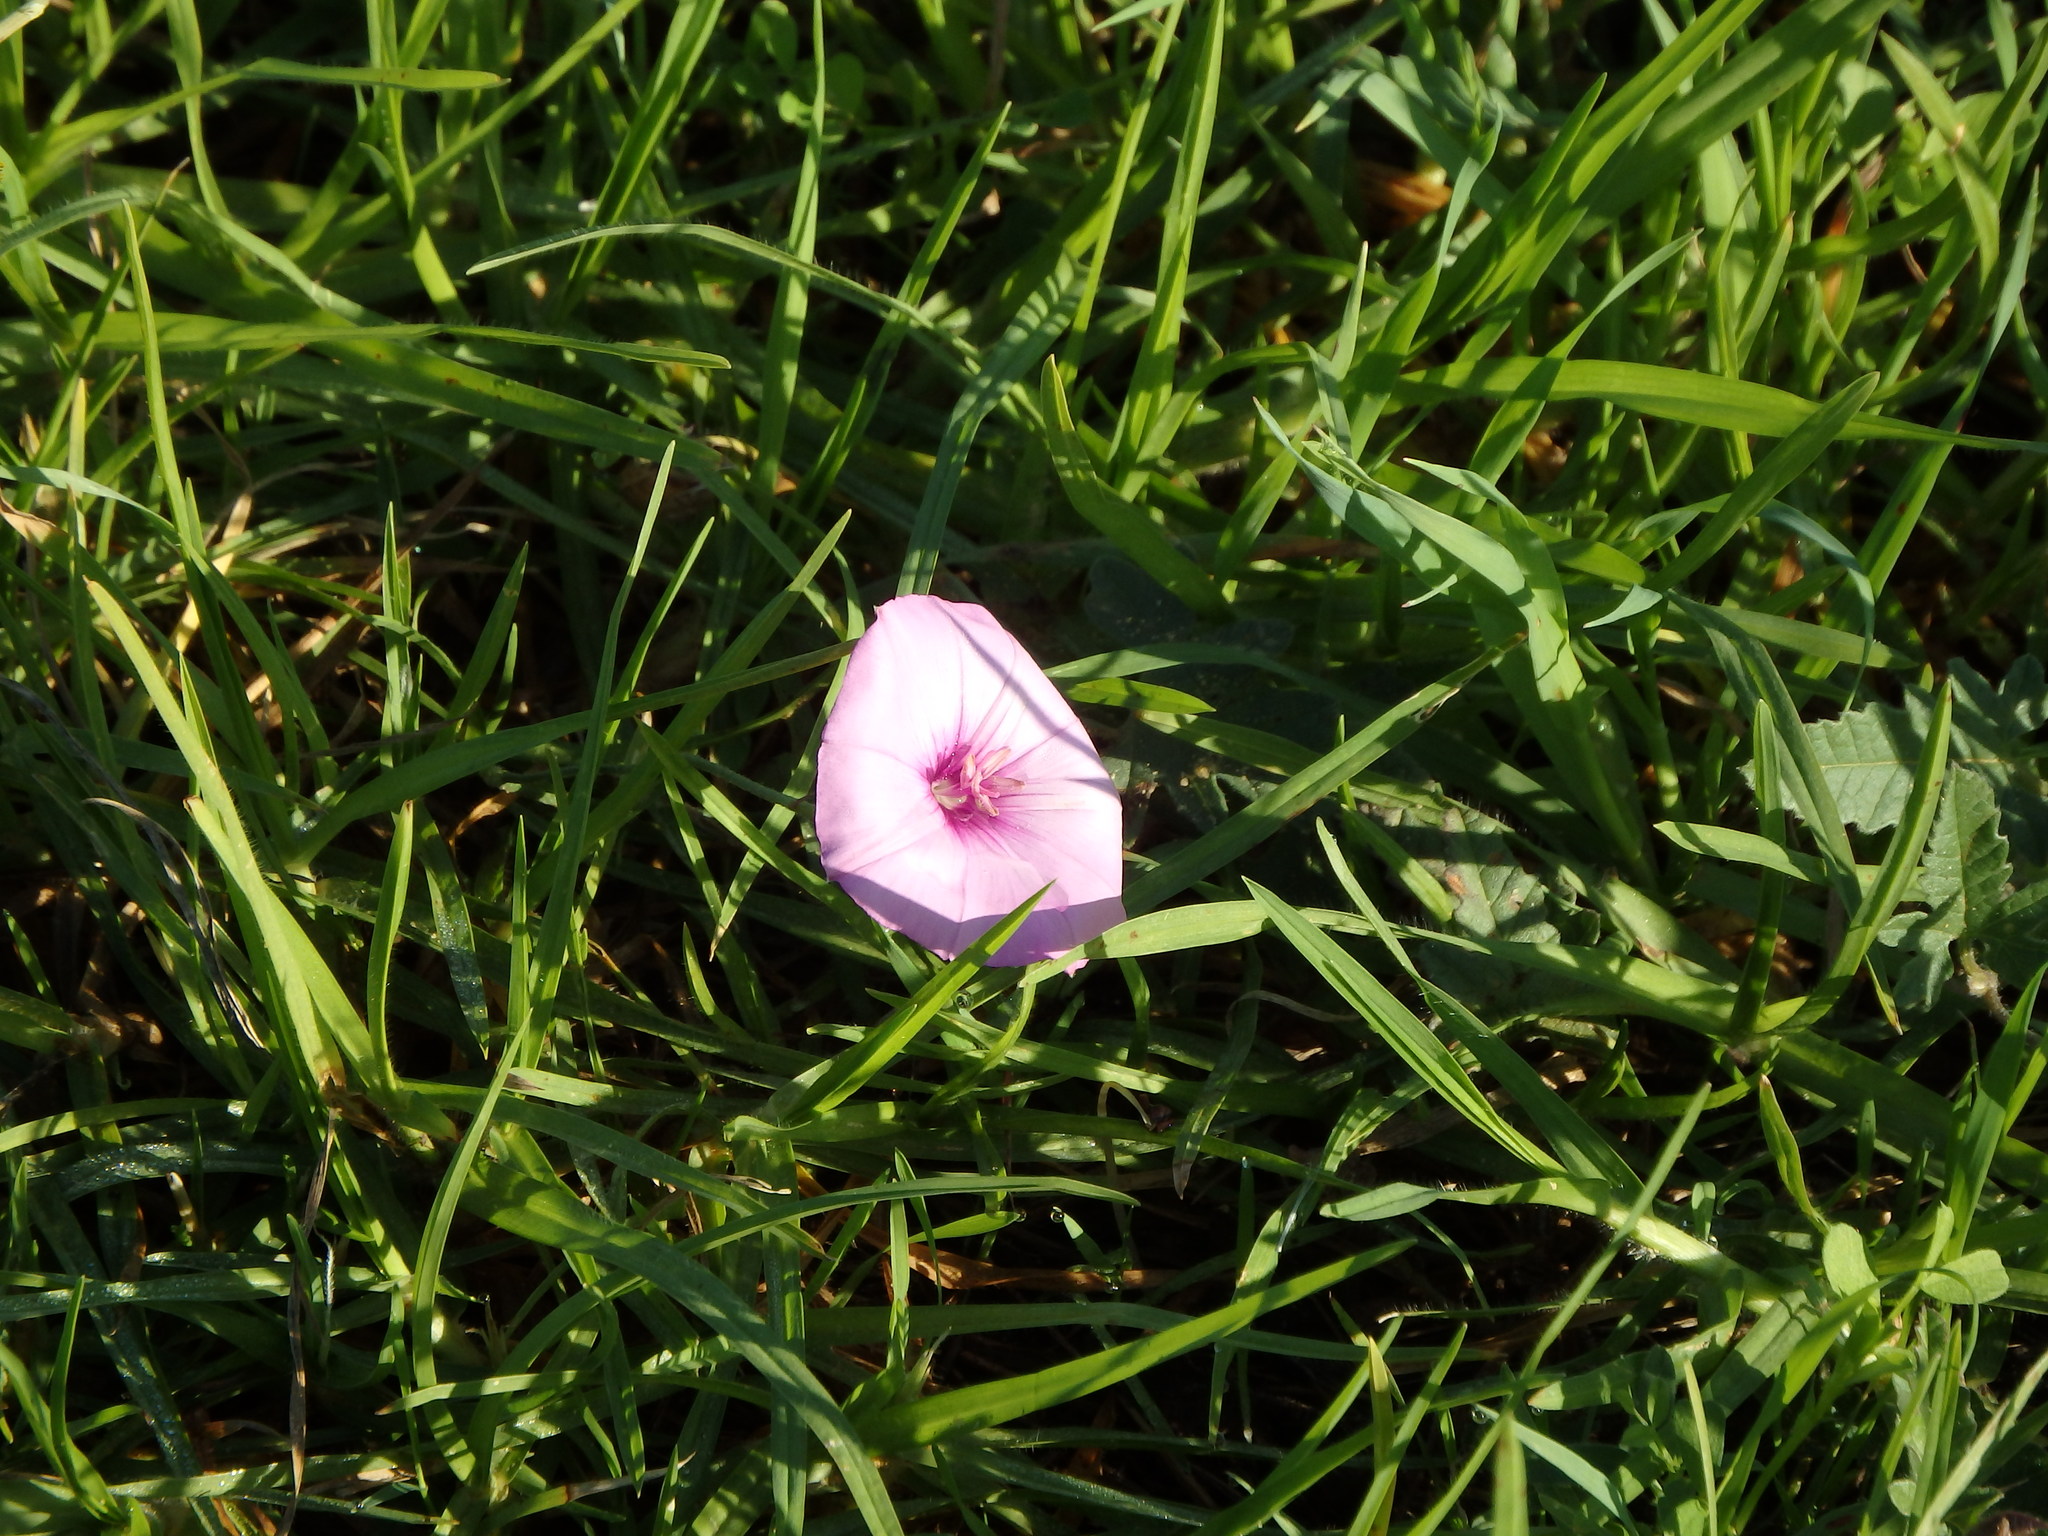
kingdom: Plantae
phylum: Tracheophyta
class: Magnoliopsida
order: Solanales
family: Convolvulaceae
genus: Convolvulus
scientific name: Convolvulus althaeoides
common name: Mallow bindweed
